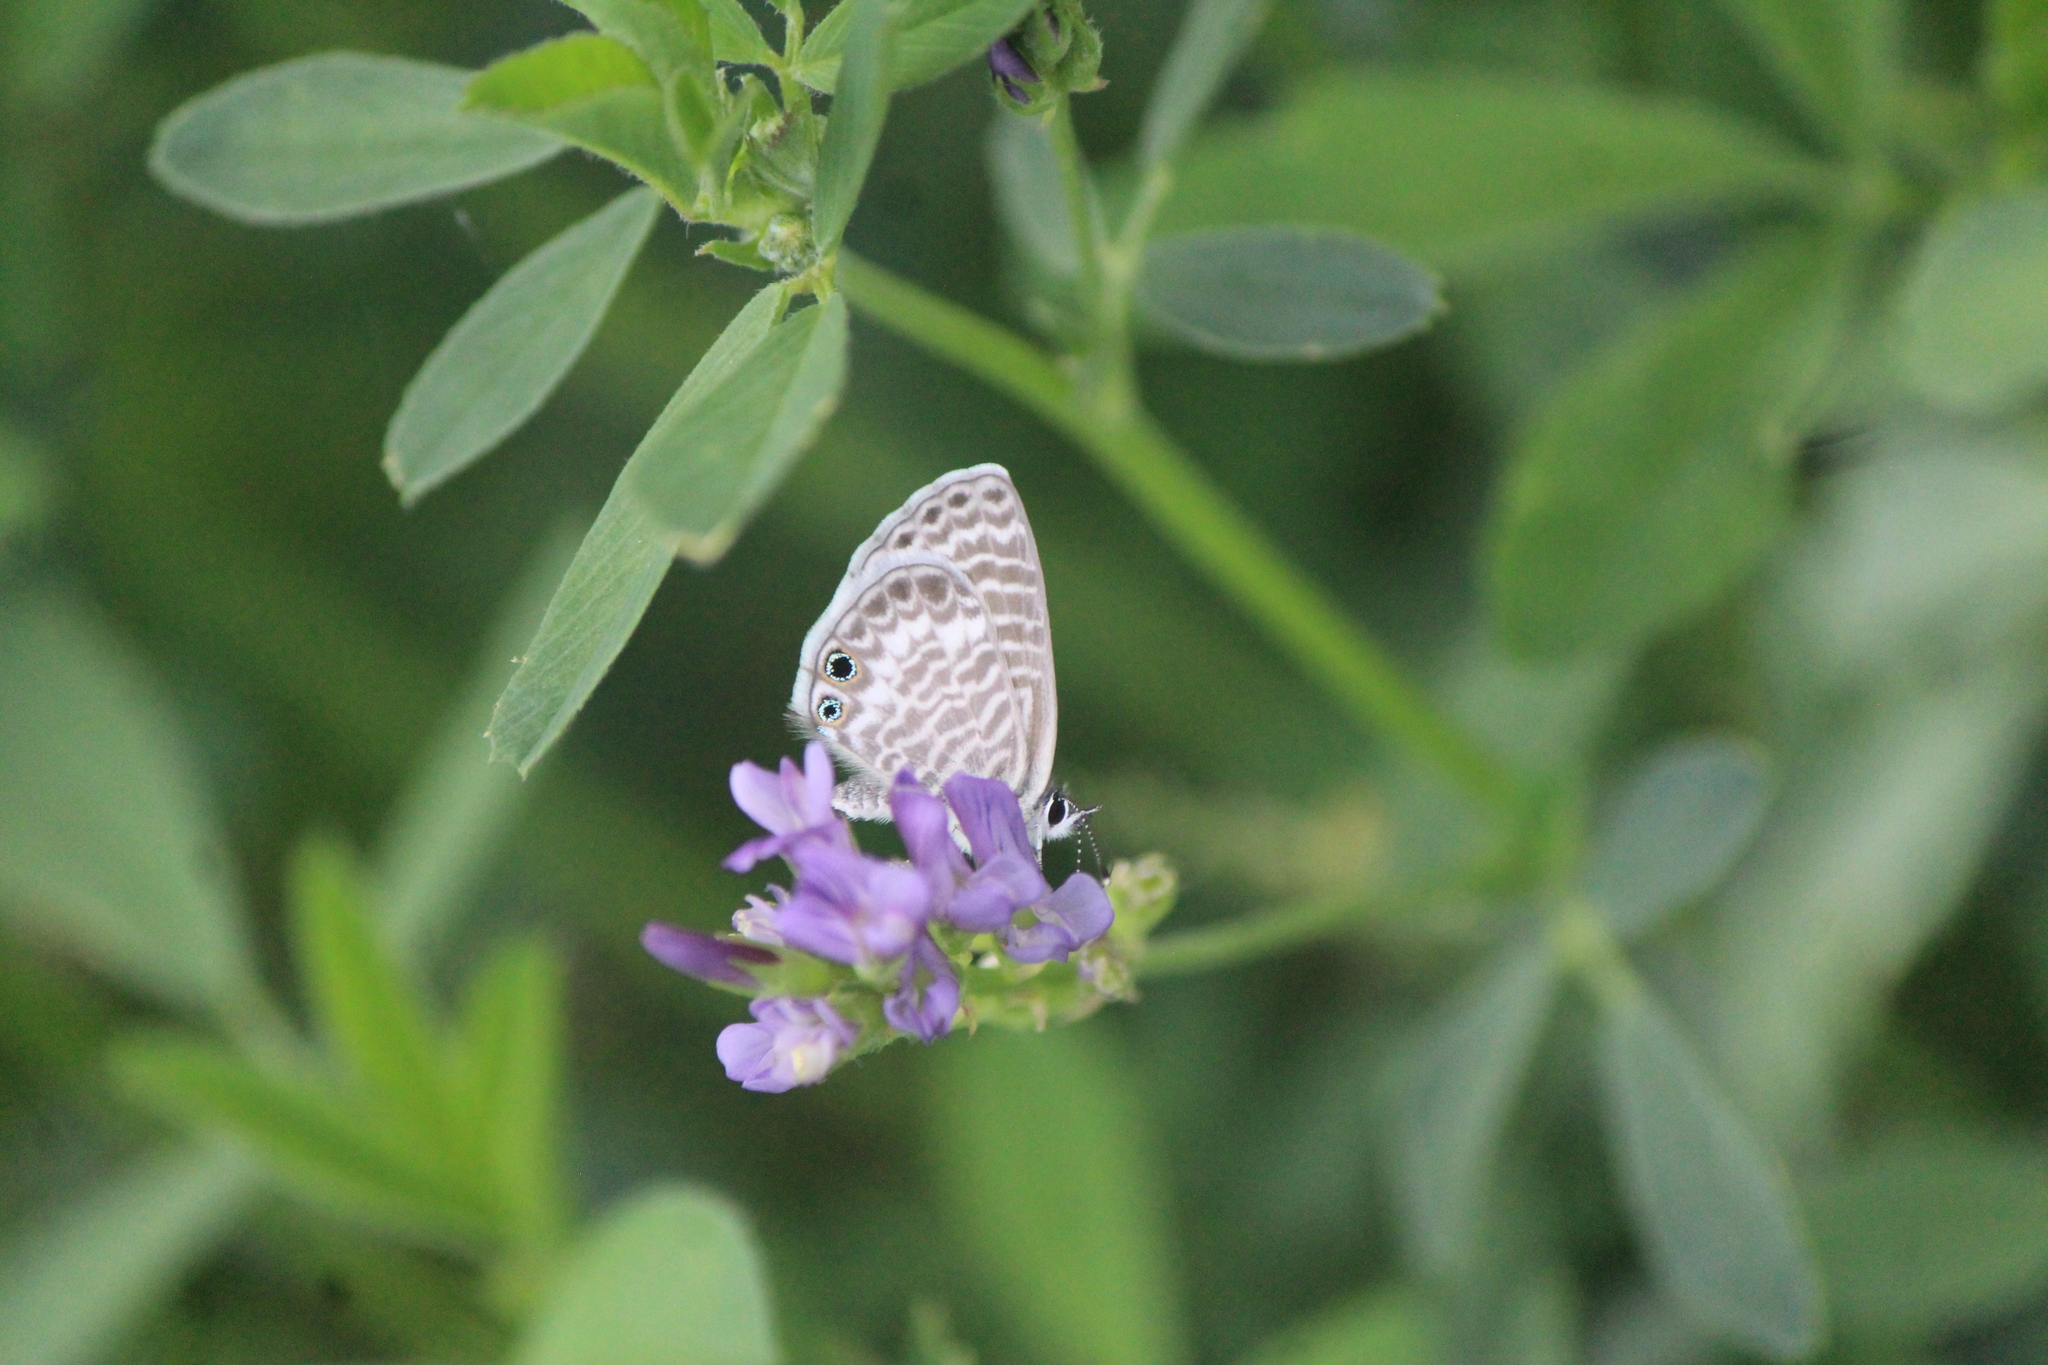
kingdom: Animalia
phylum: Arthropoda
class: Insecta
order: Lepidoptera
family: Lycaenidae
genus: Leptotes
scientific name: Leptotes marina
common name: Marine blue
